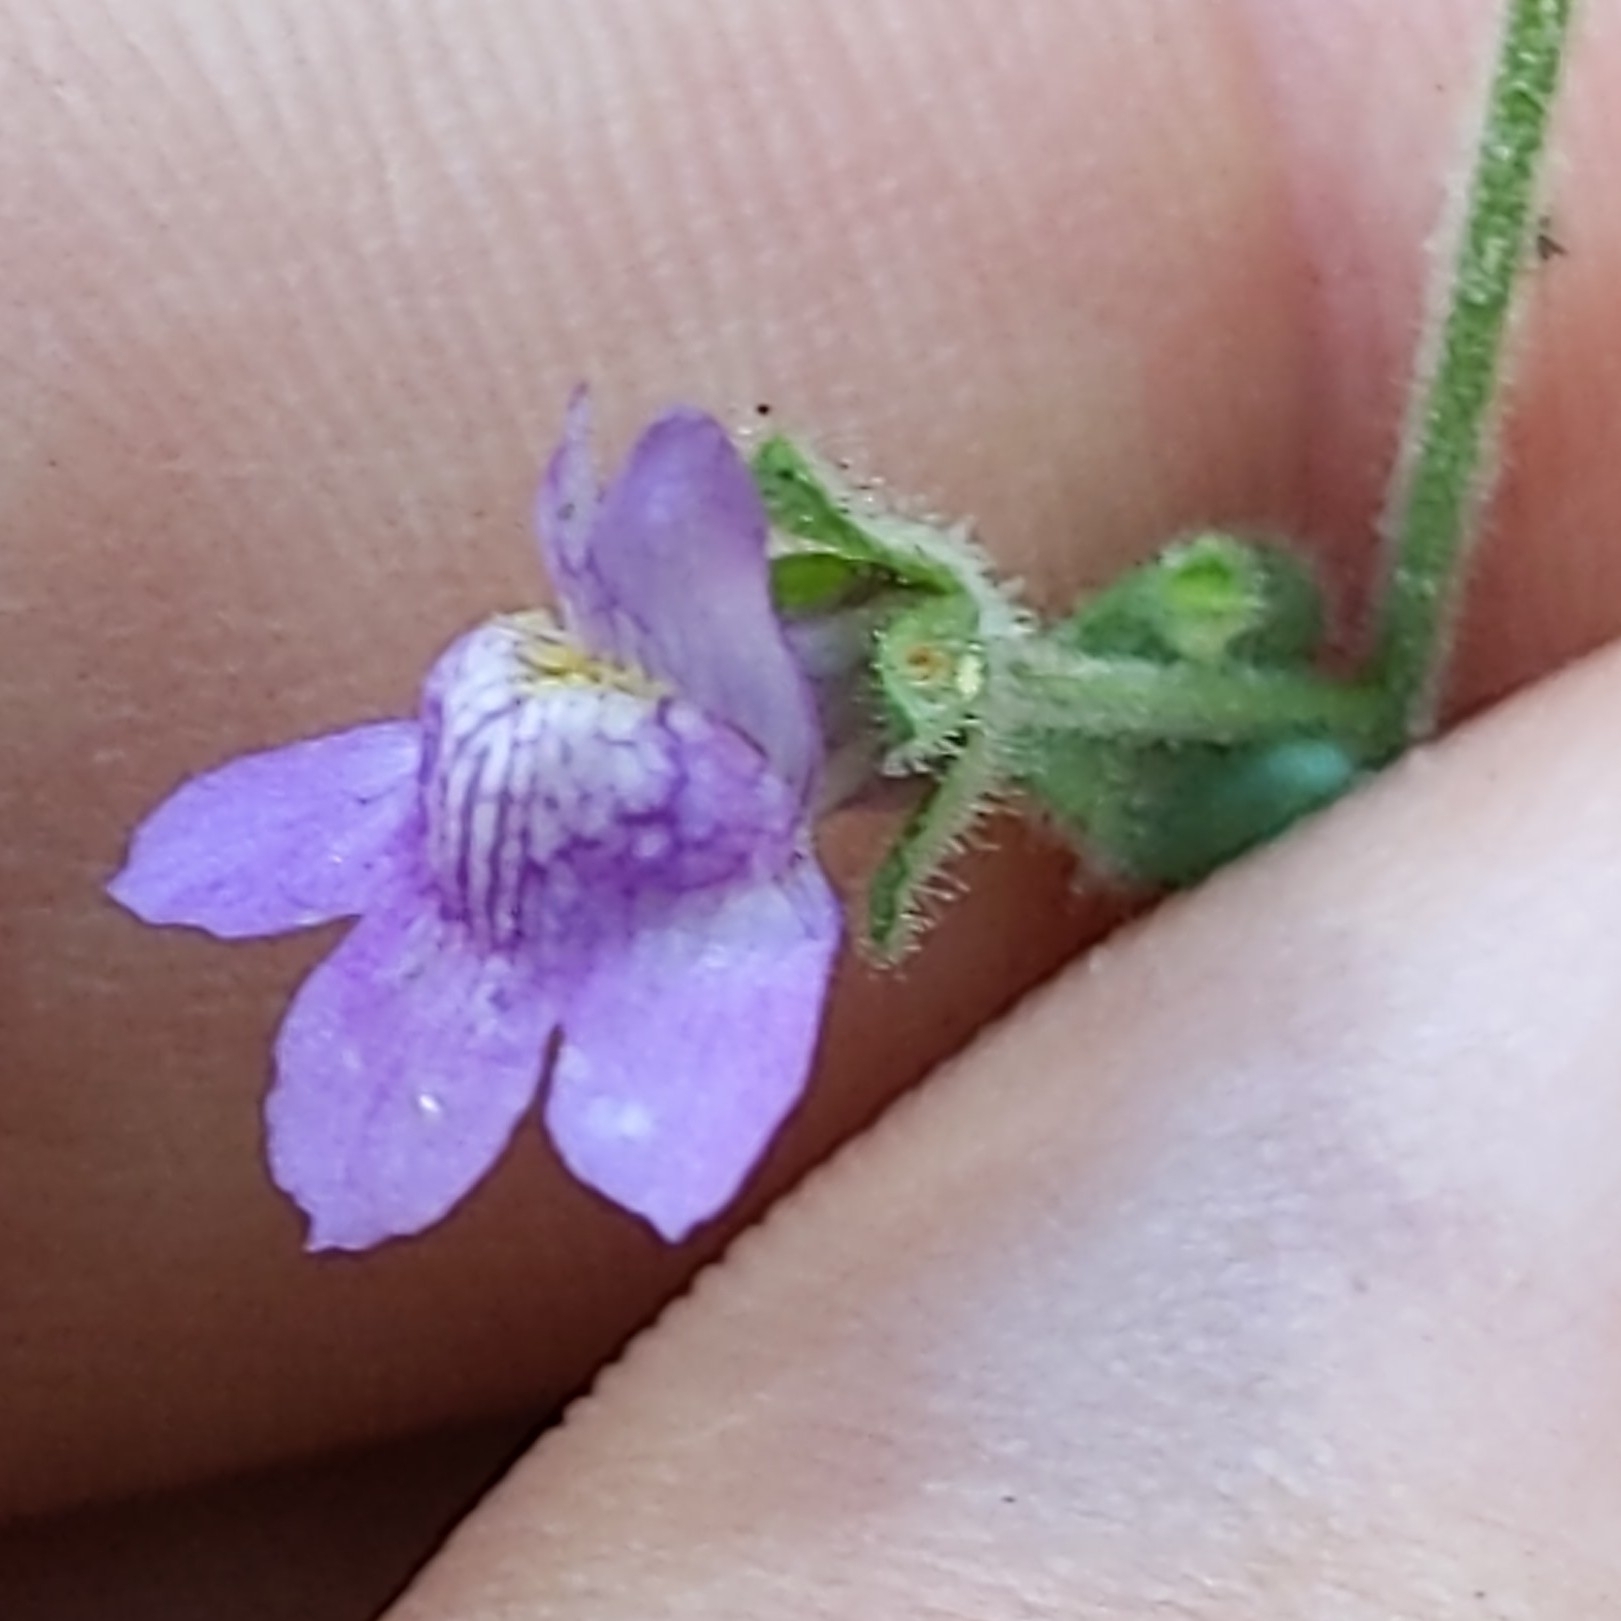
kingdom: Plantae
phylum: Tracheophyta
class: Magnoliopsida
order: Lamiales
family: Plantaginaceae
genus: Sairocarpus
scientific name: Sairocarpus nuttallianus
